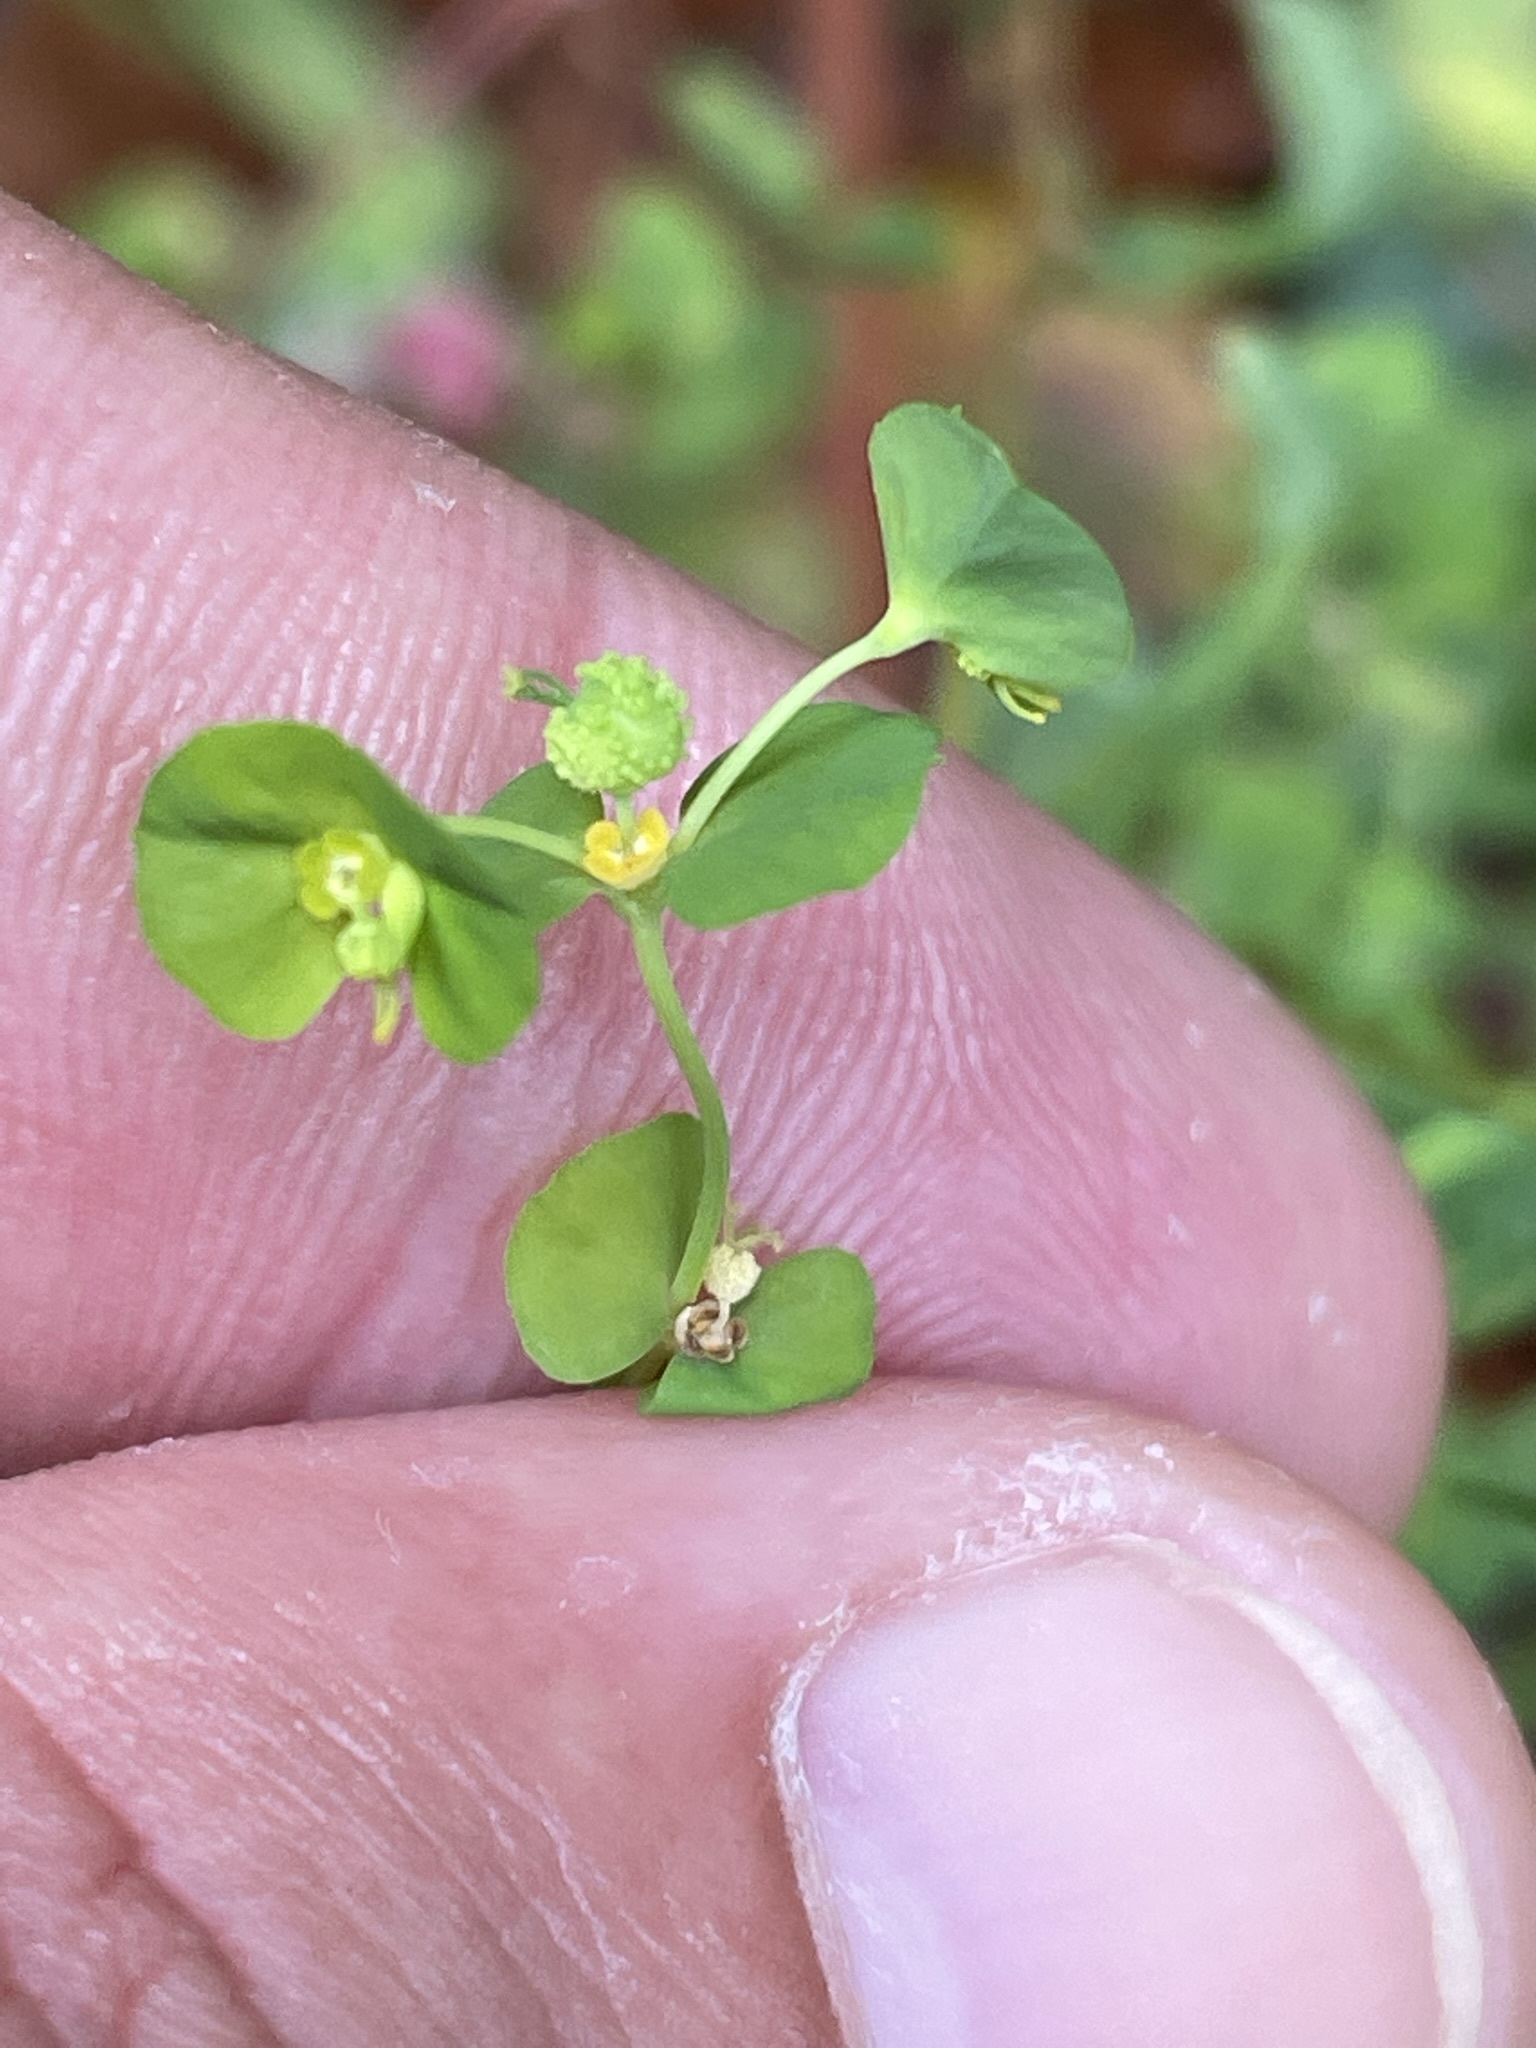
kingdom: Plantae
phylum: Tracheophyta
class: Magnoliopsida
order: Malpighiales
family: Euphorbiaceae
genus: Euphorbia
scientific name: Euphorbia stricta
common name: Upright spurge
